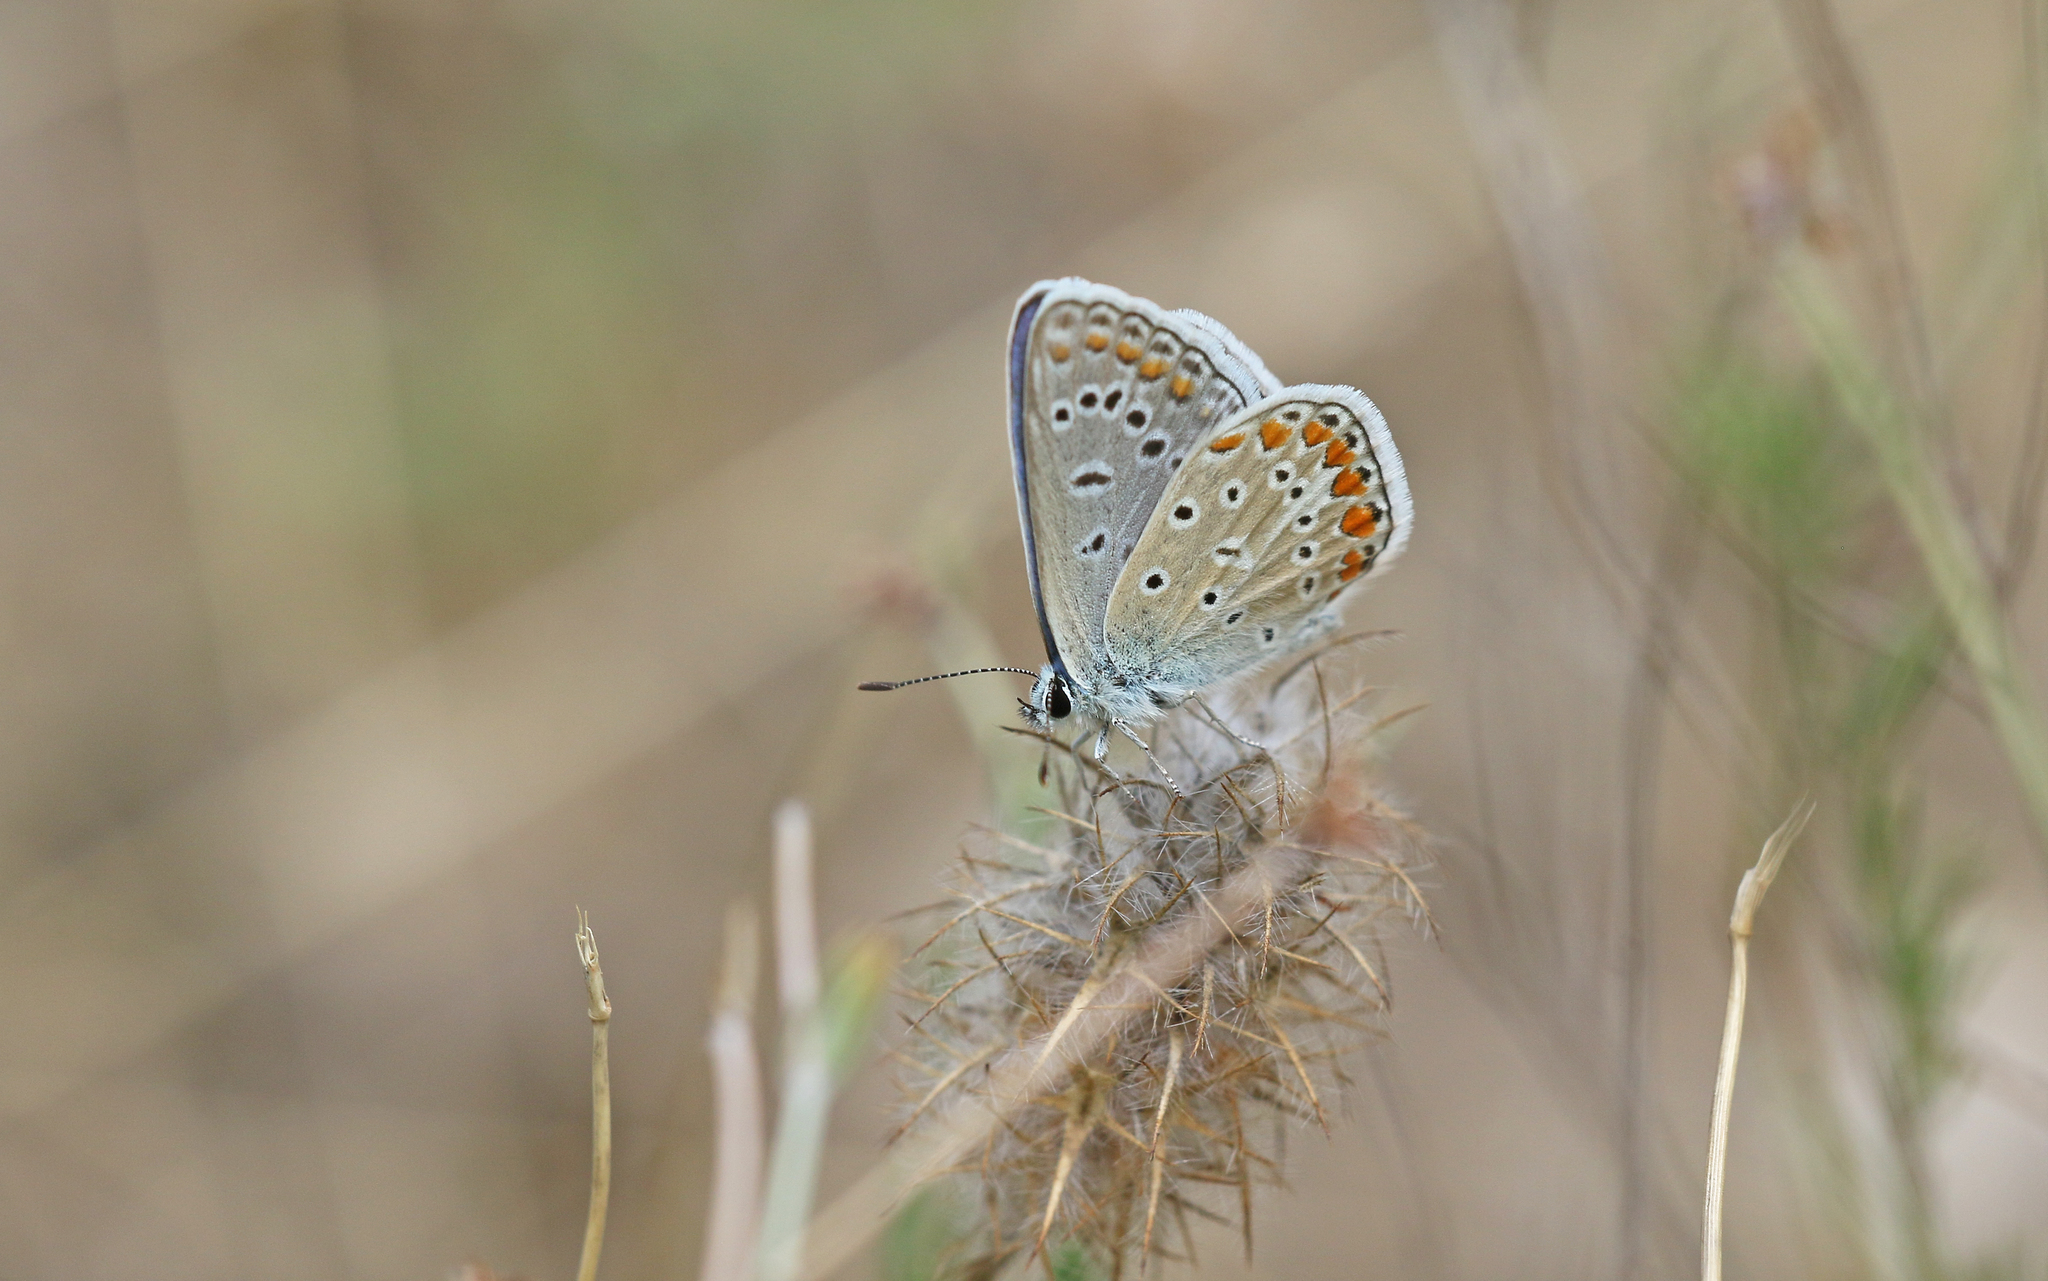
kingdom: Animalia
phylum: Arthropoda
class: Insecta
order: Lepidoptera
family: Lycaenidae
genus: Polyommatus
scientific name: Polyommatus icarus
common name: Common blue
